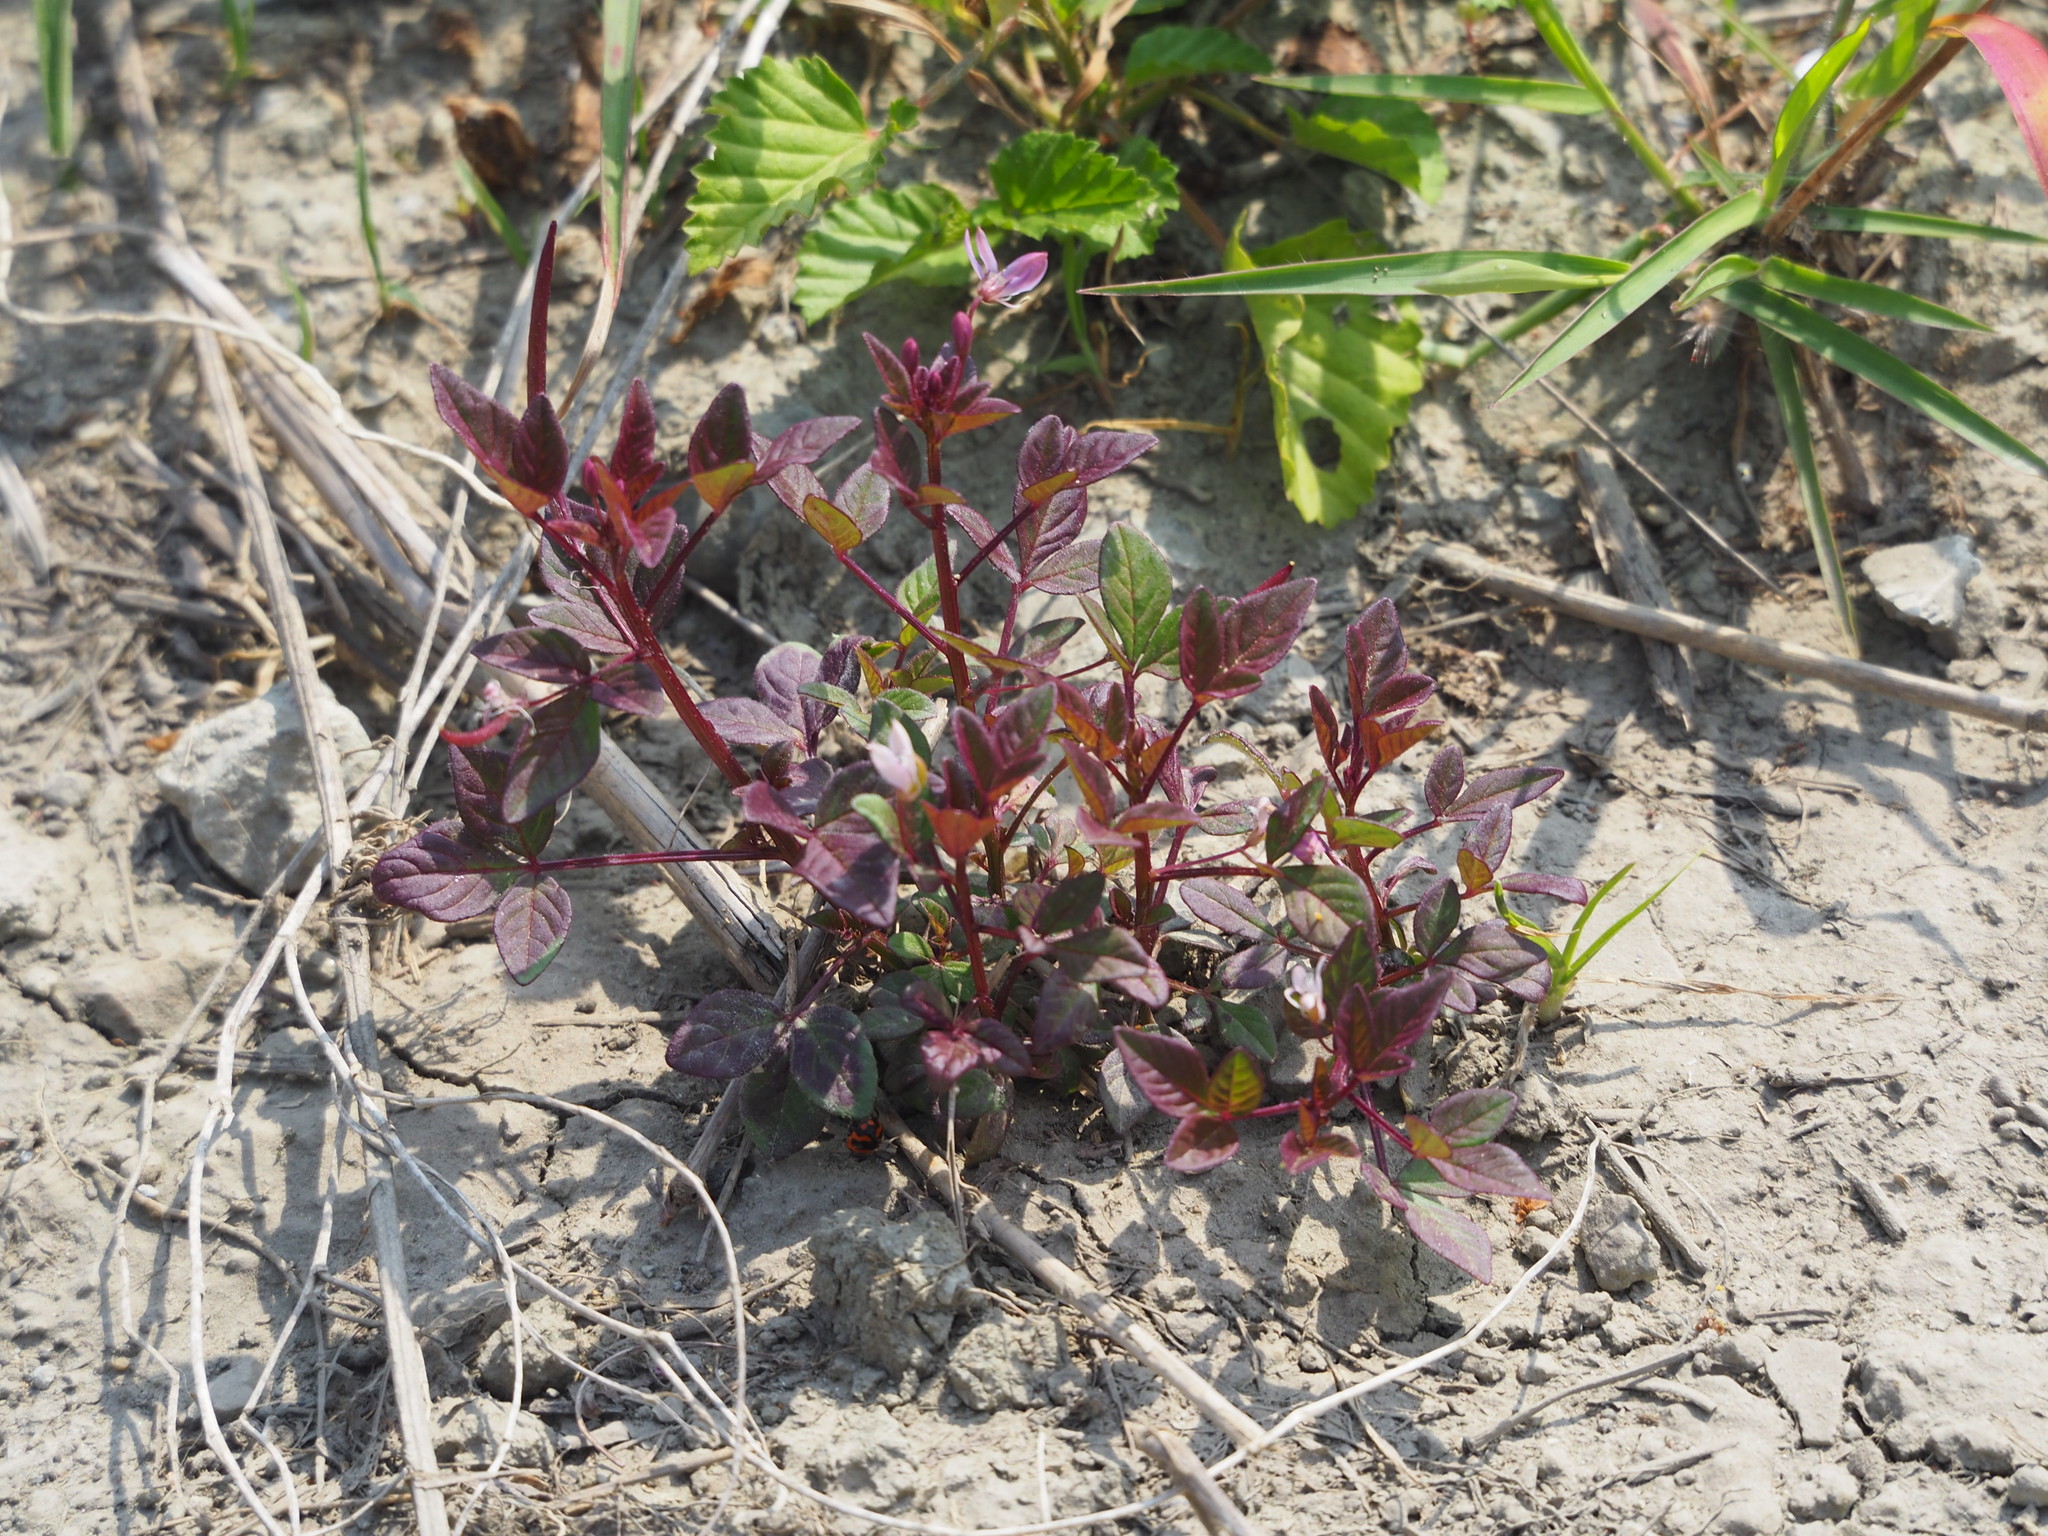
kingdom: Plantae
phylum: Tracheophyta
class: Magnoliopsida
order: Brassicales
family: Cleomaceae
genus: Sieruela
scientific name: Sieruela rutidosperma
